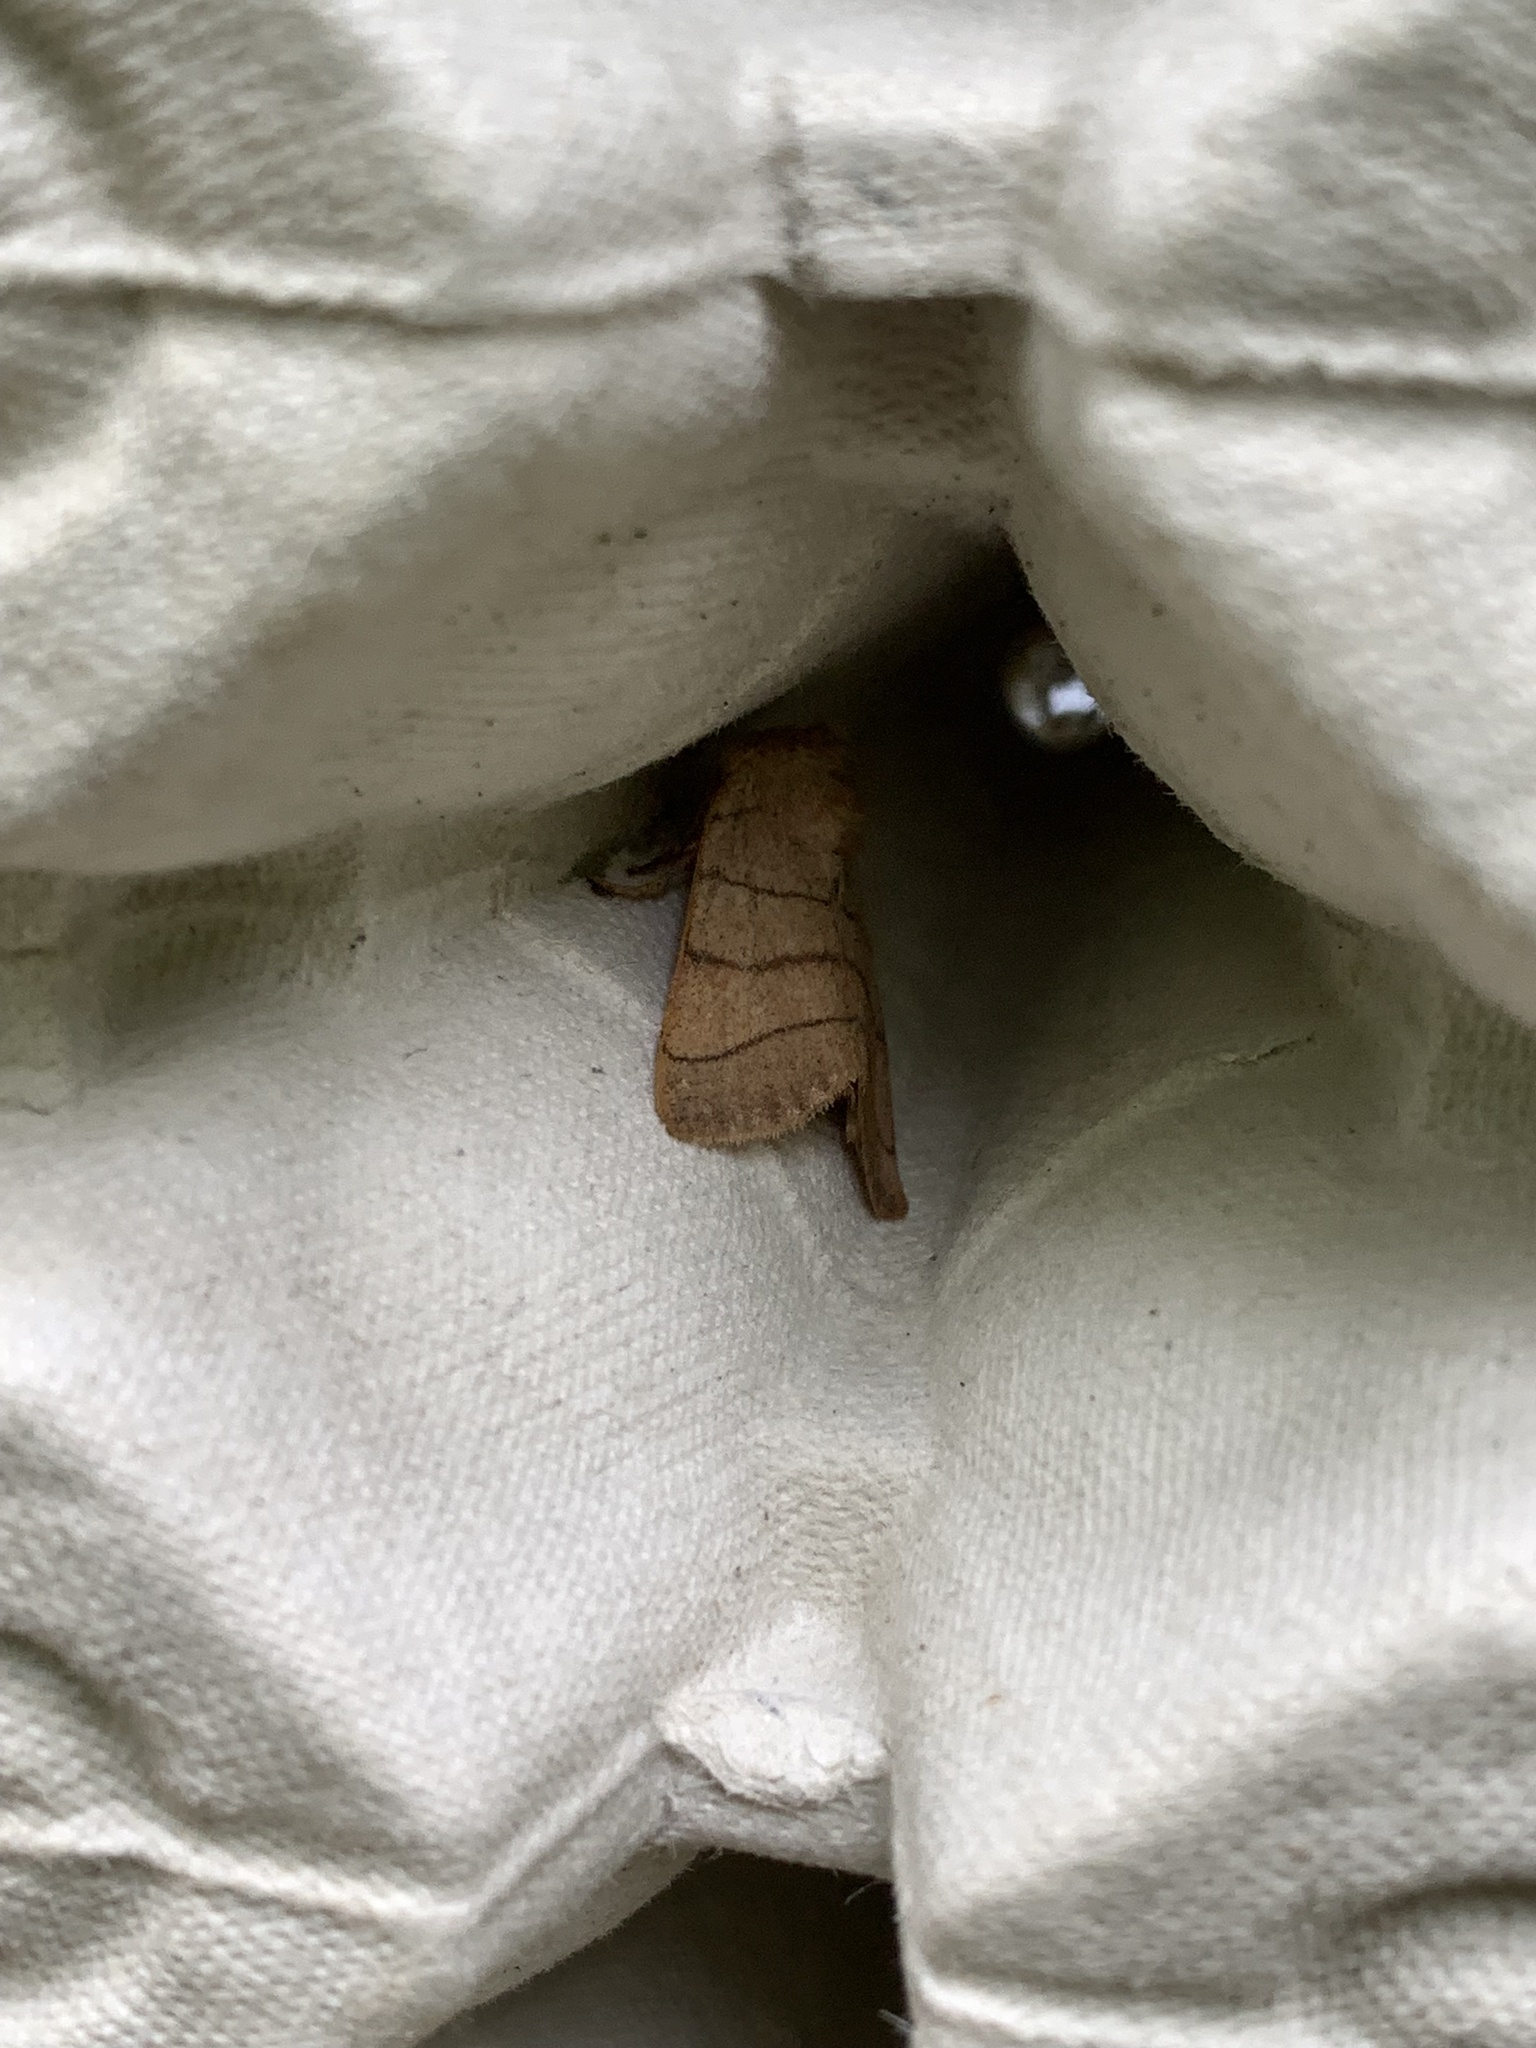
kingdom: Animalia
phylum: Arthropoda
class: Insecta
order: Lepidoptera
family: Noctuidae
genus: Charanyca
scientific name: Charanyca trigrammica
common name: Treble lines
